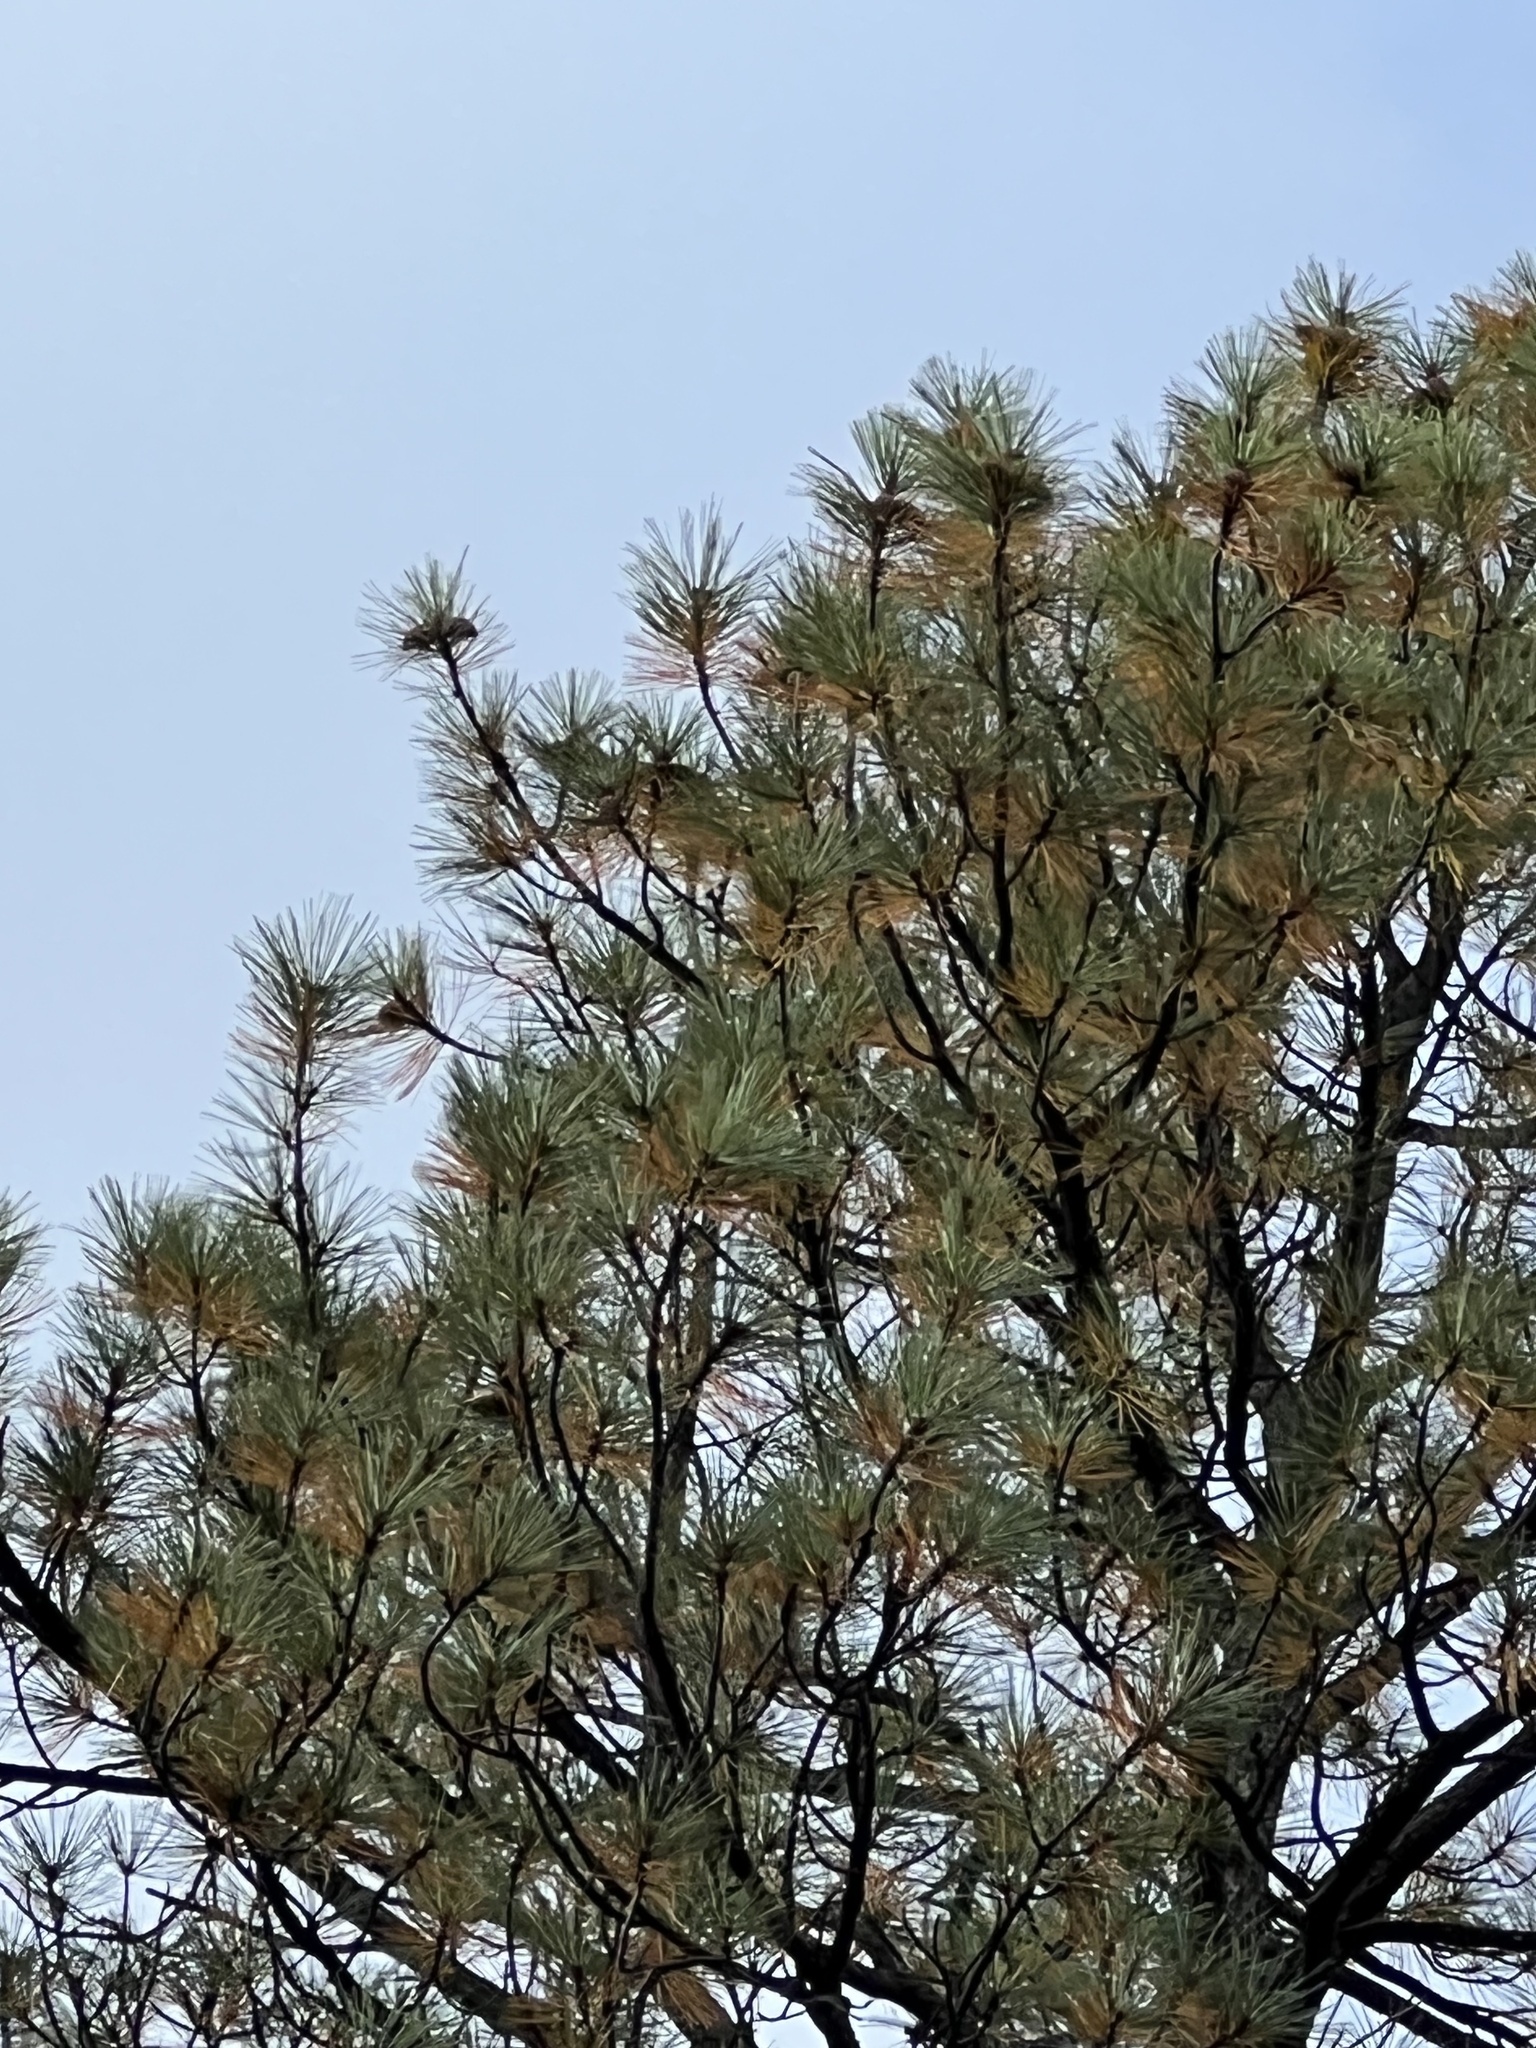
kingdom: Plantae
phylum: Tracheophyta
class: Pinopsida
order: Pinales
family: Pinaceae
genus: Pinus
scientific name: Pinus ponderosa
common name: Western yellow-pine
